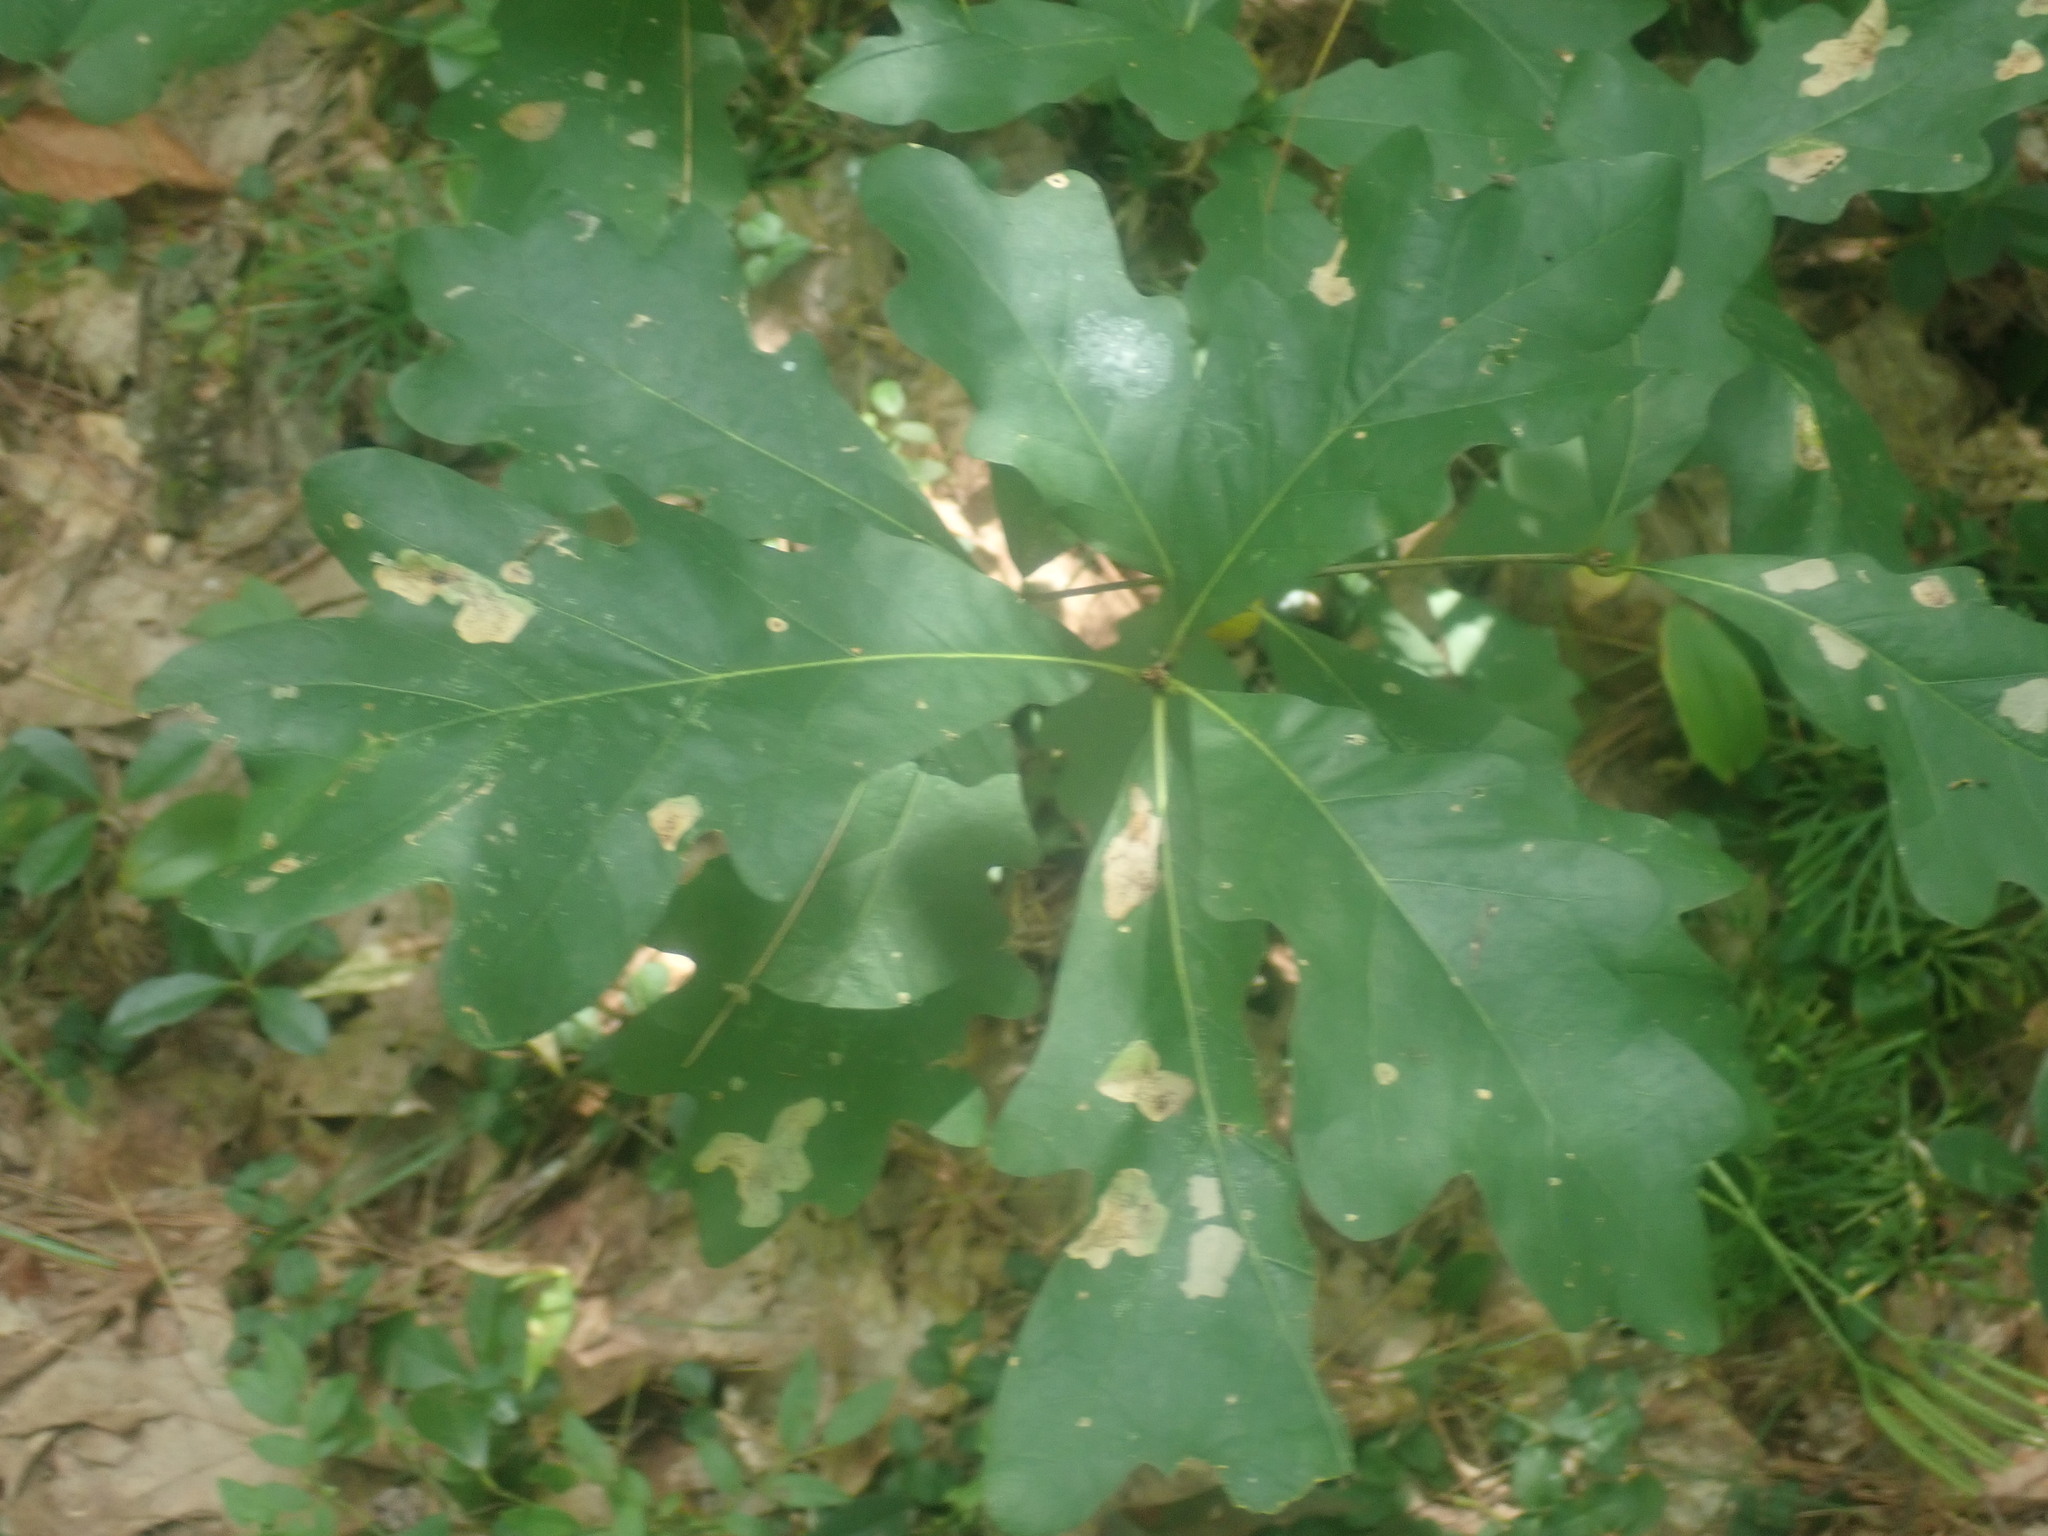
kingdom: Plantae
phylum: Tracheophyta
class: Magnoliopsida
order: Fagales
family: Fagaceae
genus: Quercus
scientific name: Quercus alba
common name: White oak
